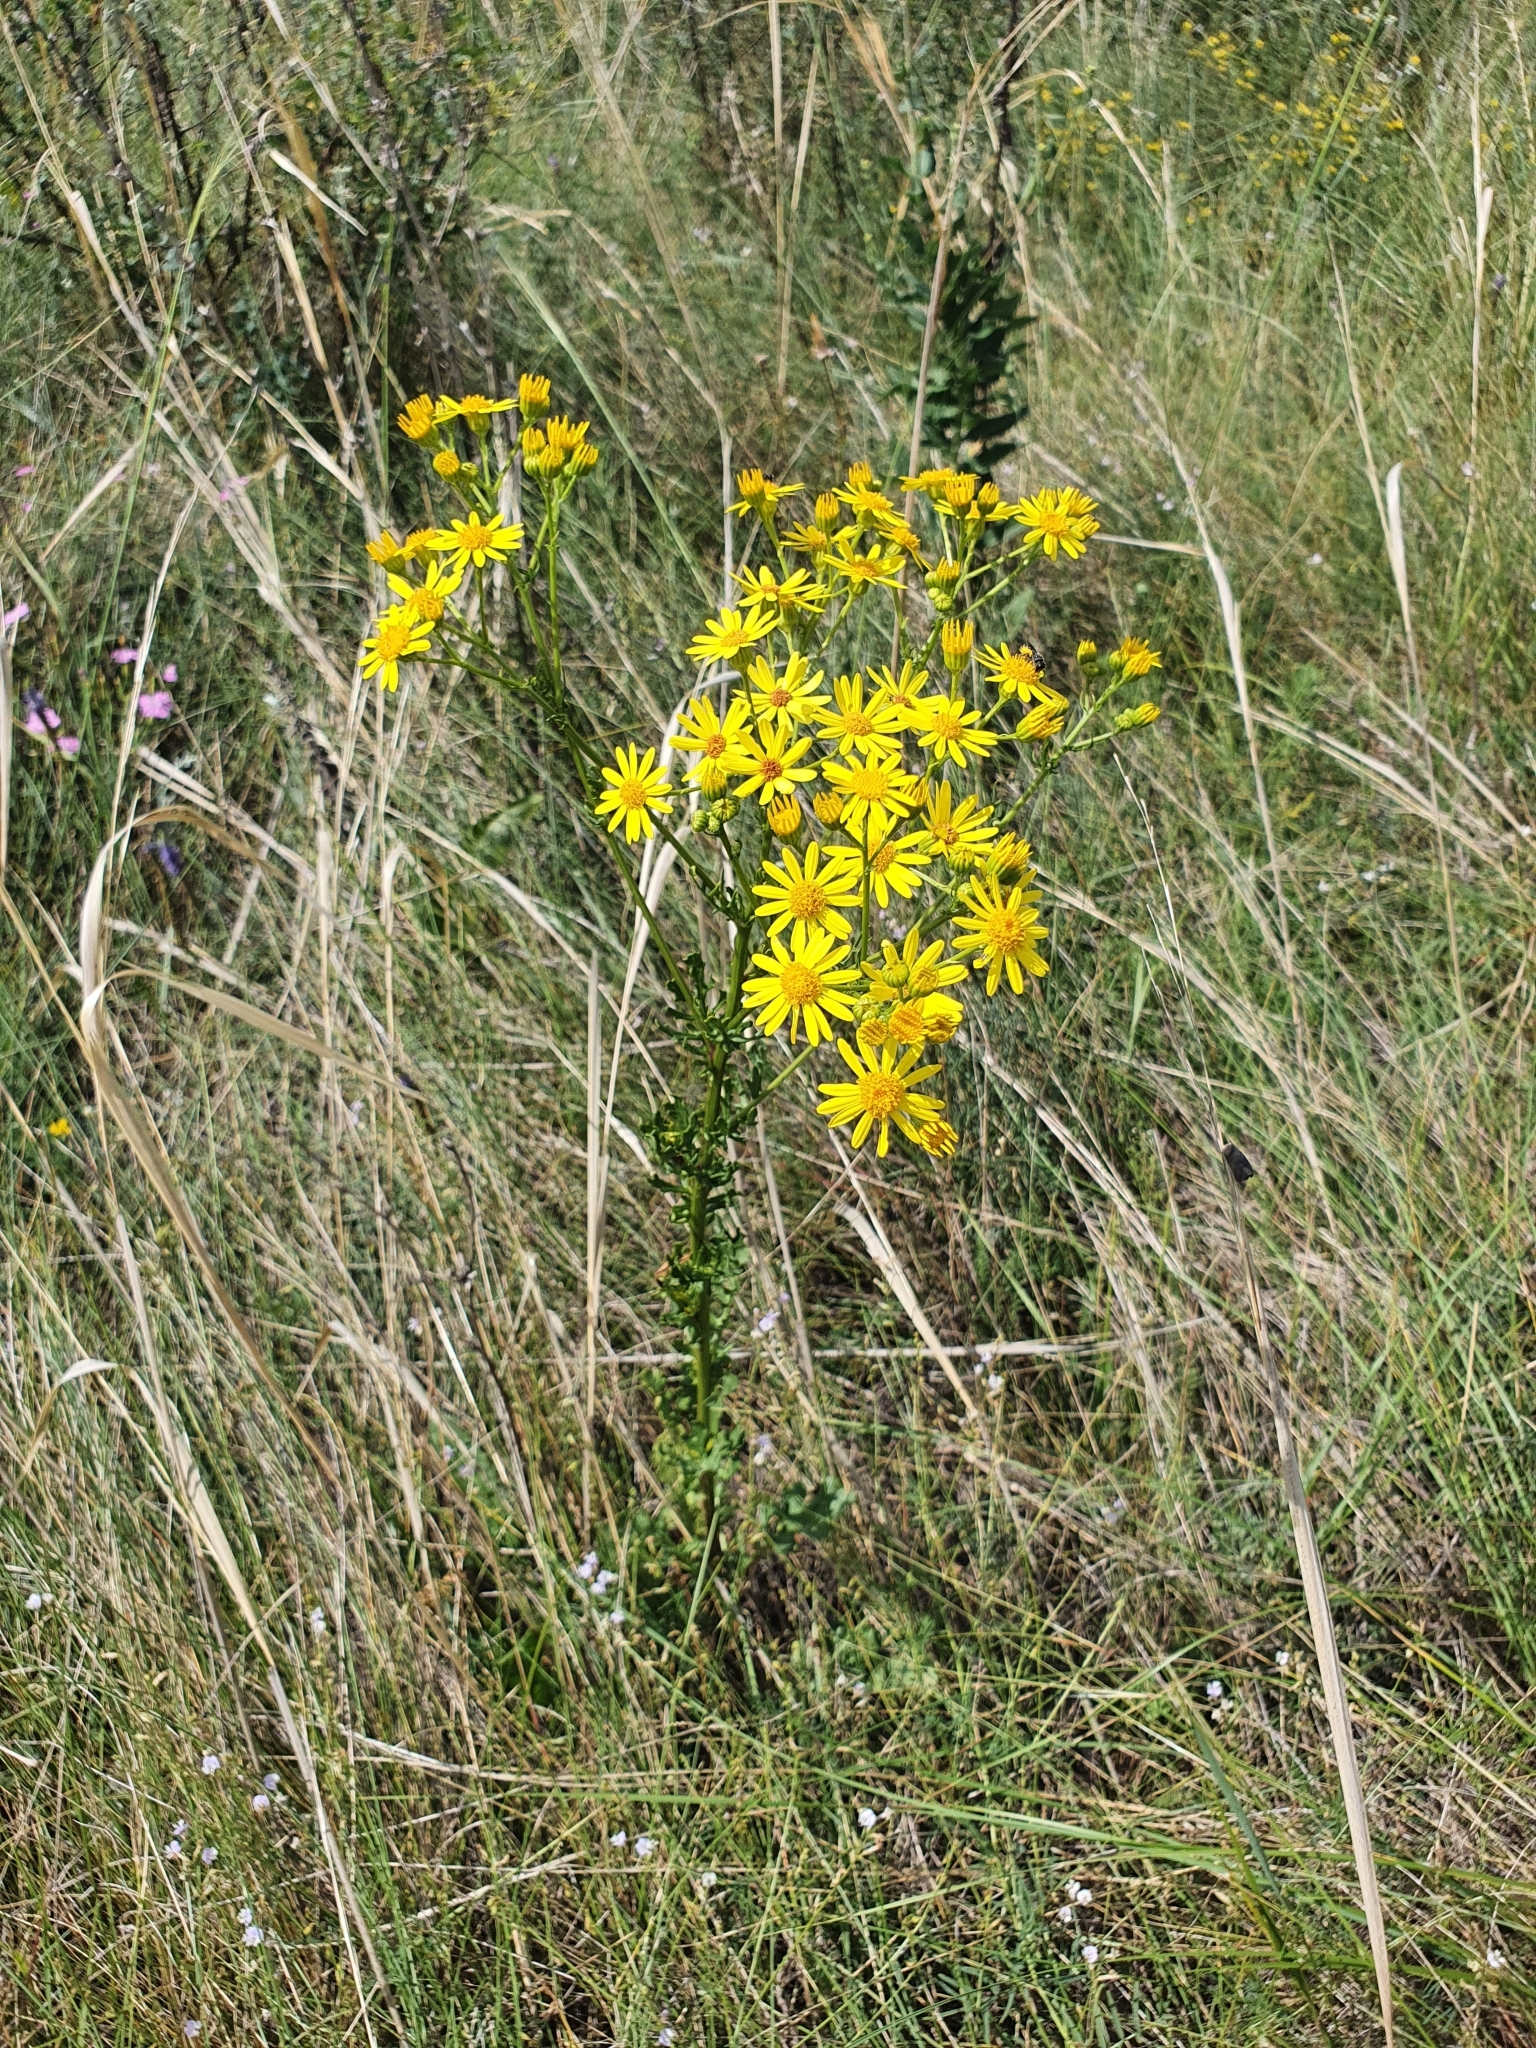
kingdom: Plantae
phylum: Tracheophyta
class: Magnoliopsida
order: Asterales
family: Asteraceae
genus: Jacobaea
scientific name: Jacobaea vulgaris
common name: Stinking willie
